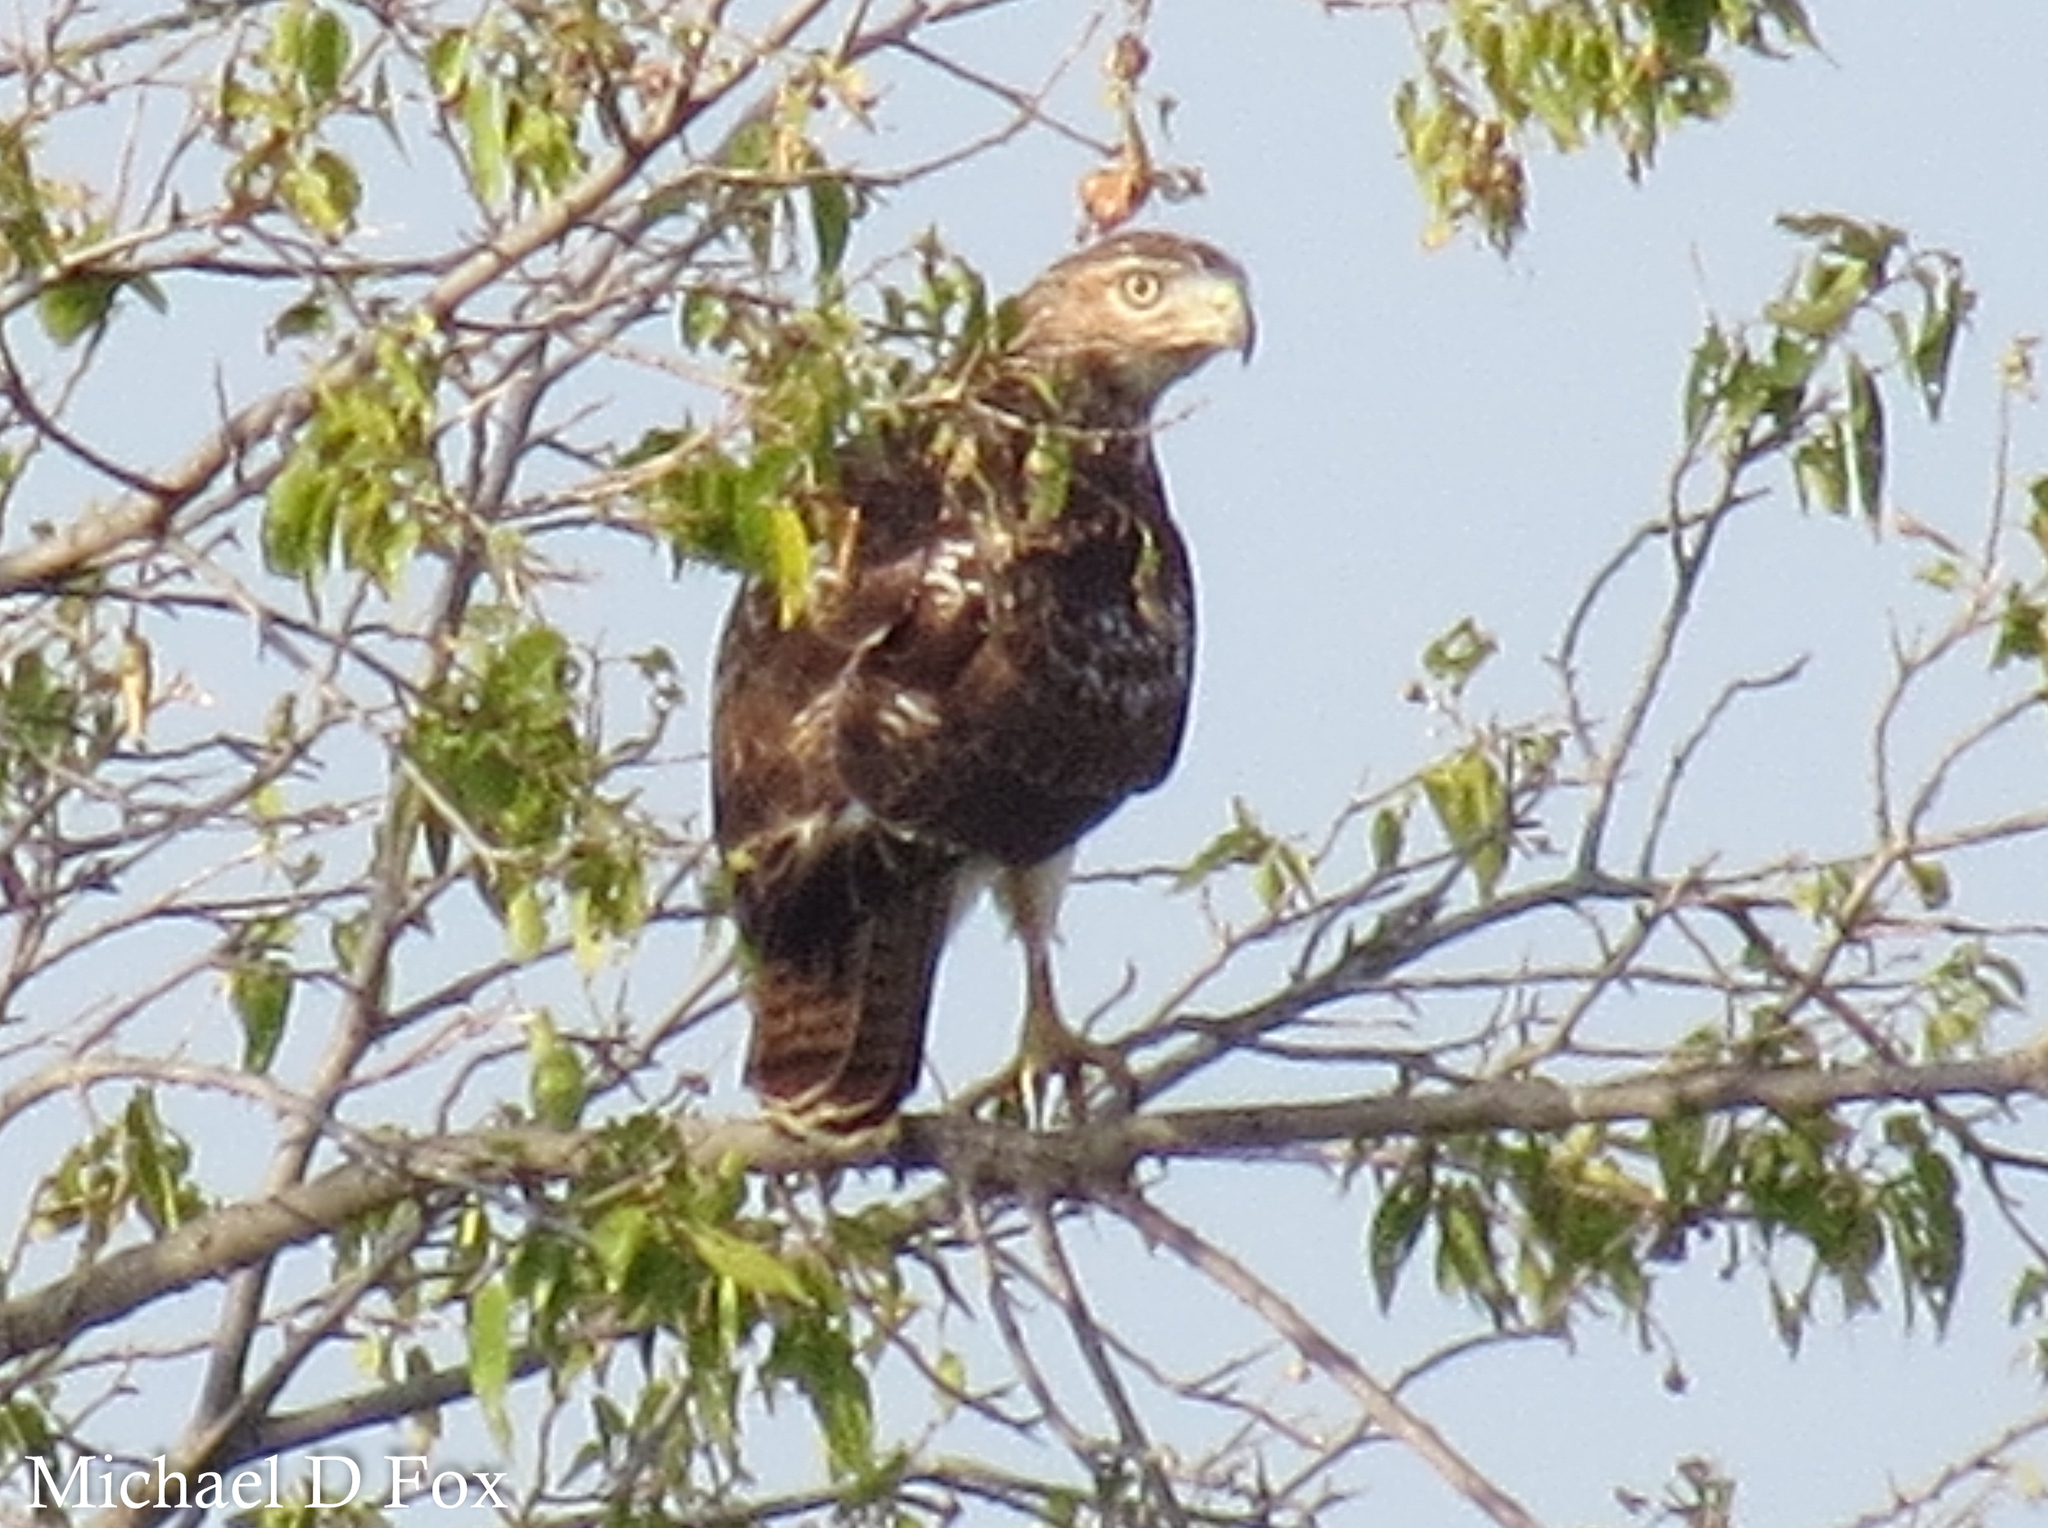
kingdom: Animalia
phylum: Chordata
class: Aves
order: Accipitriformes
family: Accipitridae
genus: Buteo
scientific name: Buteo jamaicensis
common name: Red-tailed hawk
